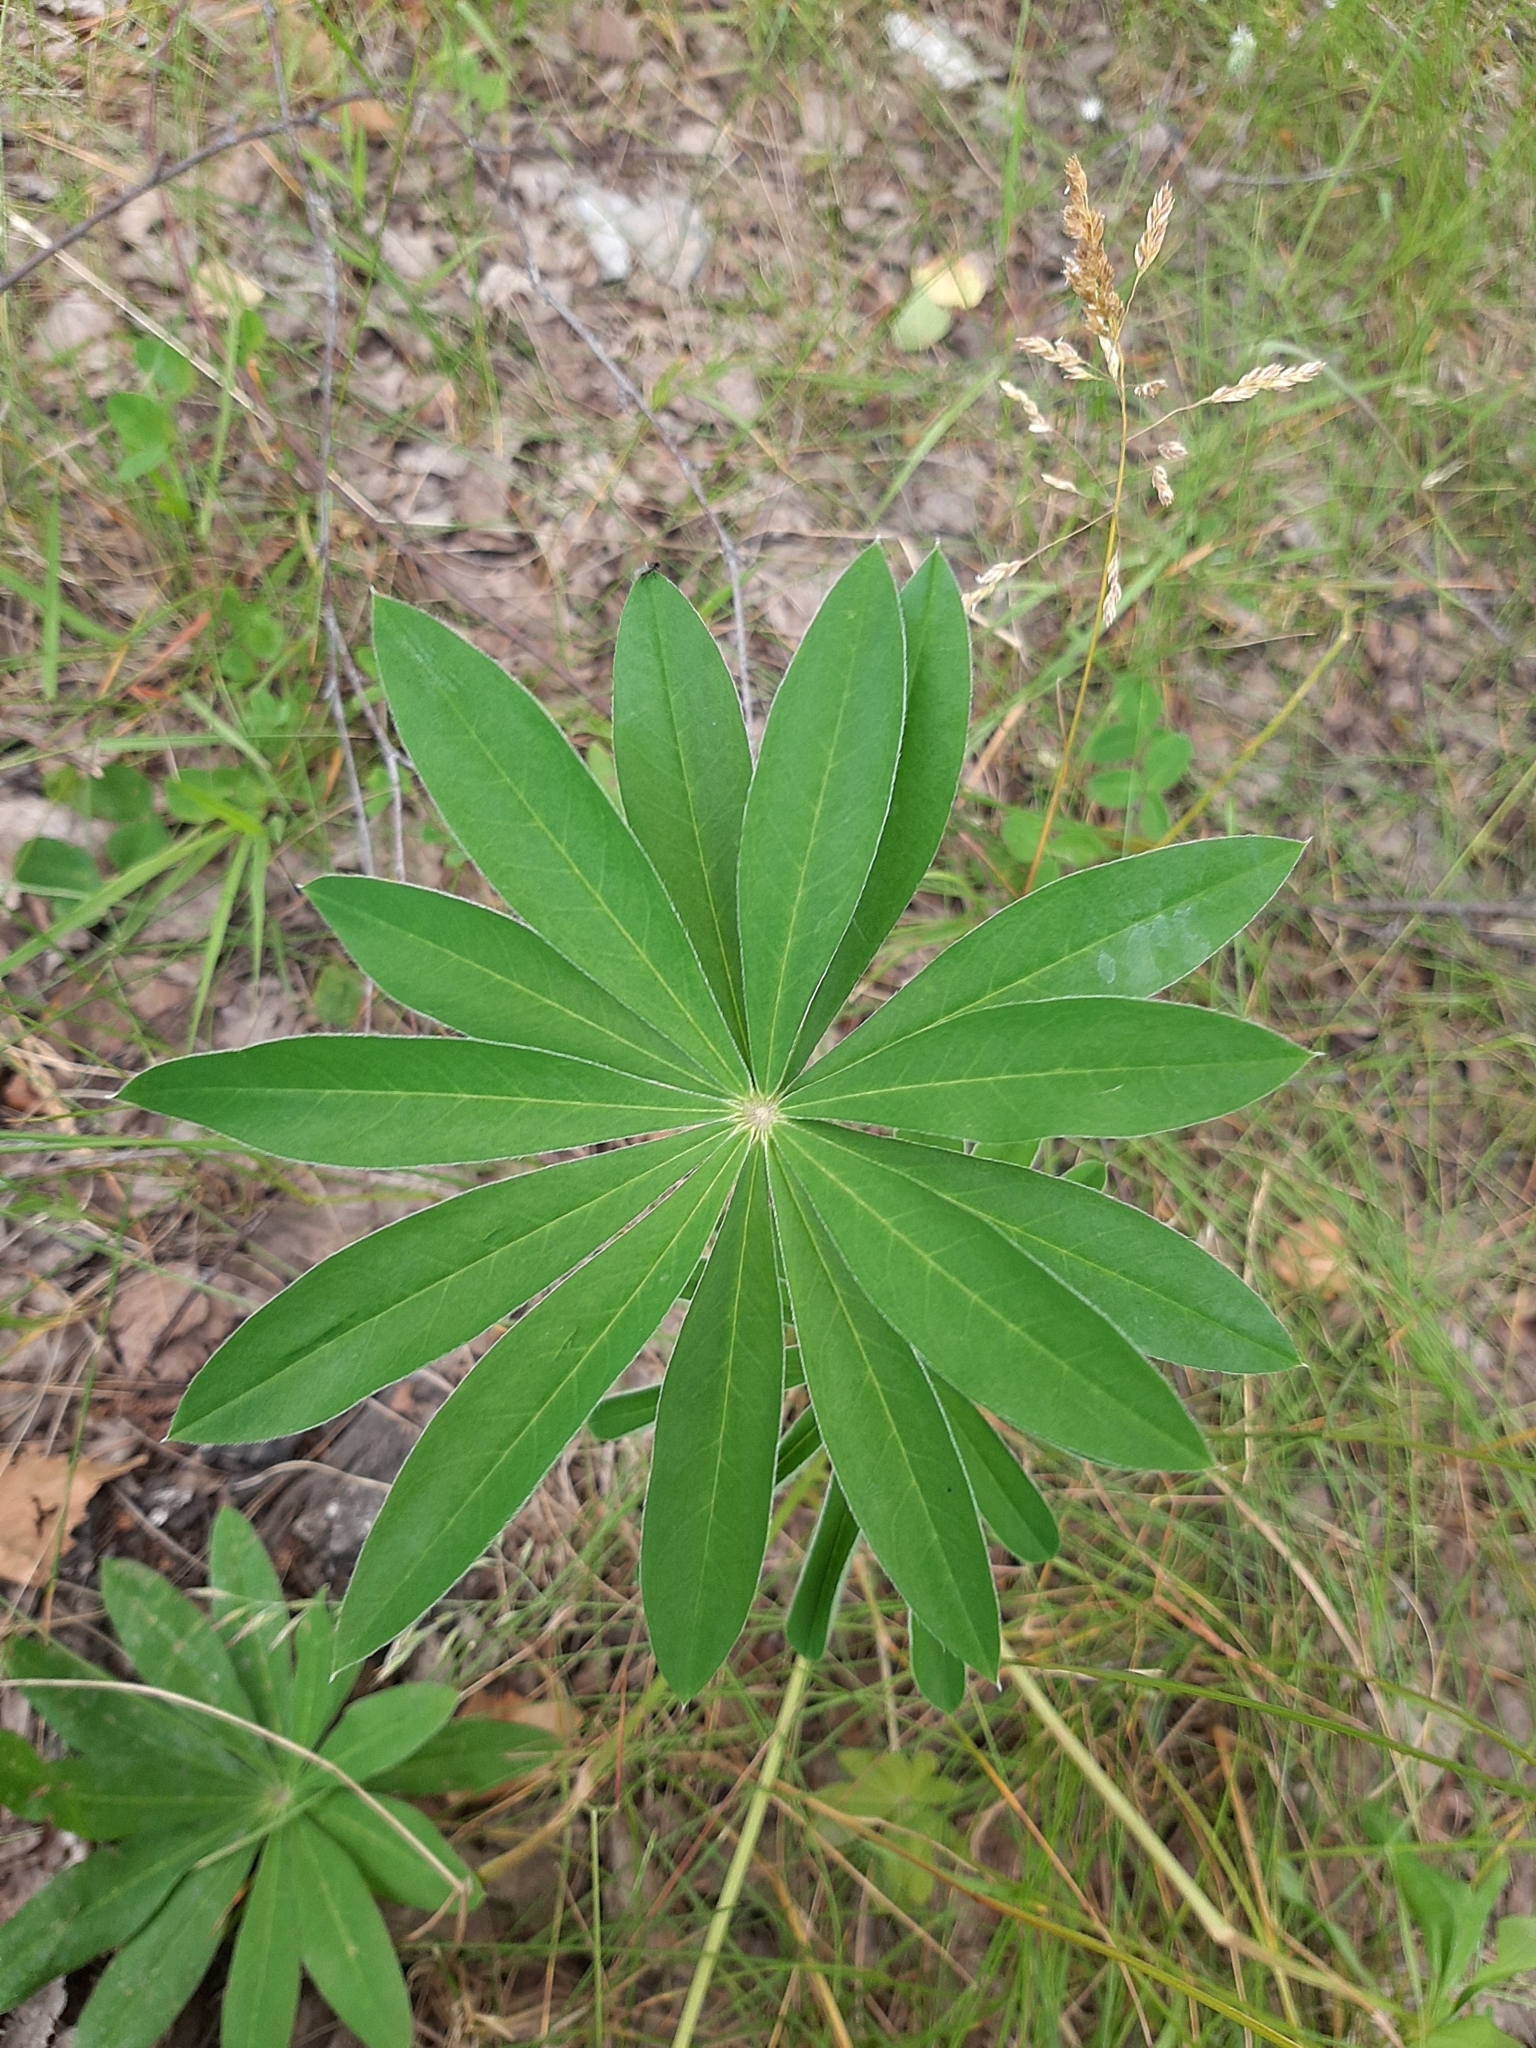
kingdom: Plantae
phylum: Tracheophyta
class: Magnoliopsida
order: Fabales
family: Fabaceae
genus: Lupinus
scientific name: Lupinus polyphyllus
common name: Garden lupin
